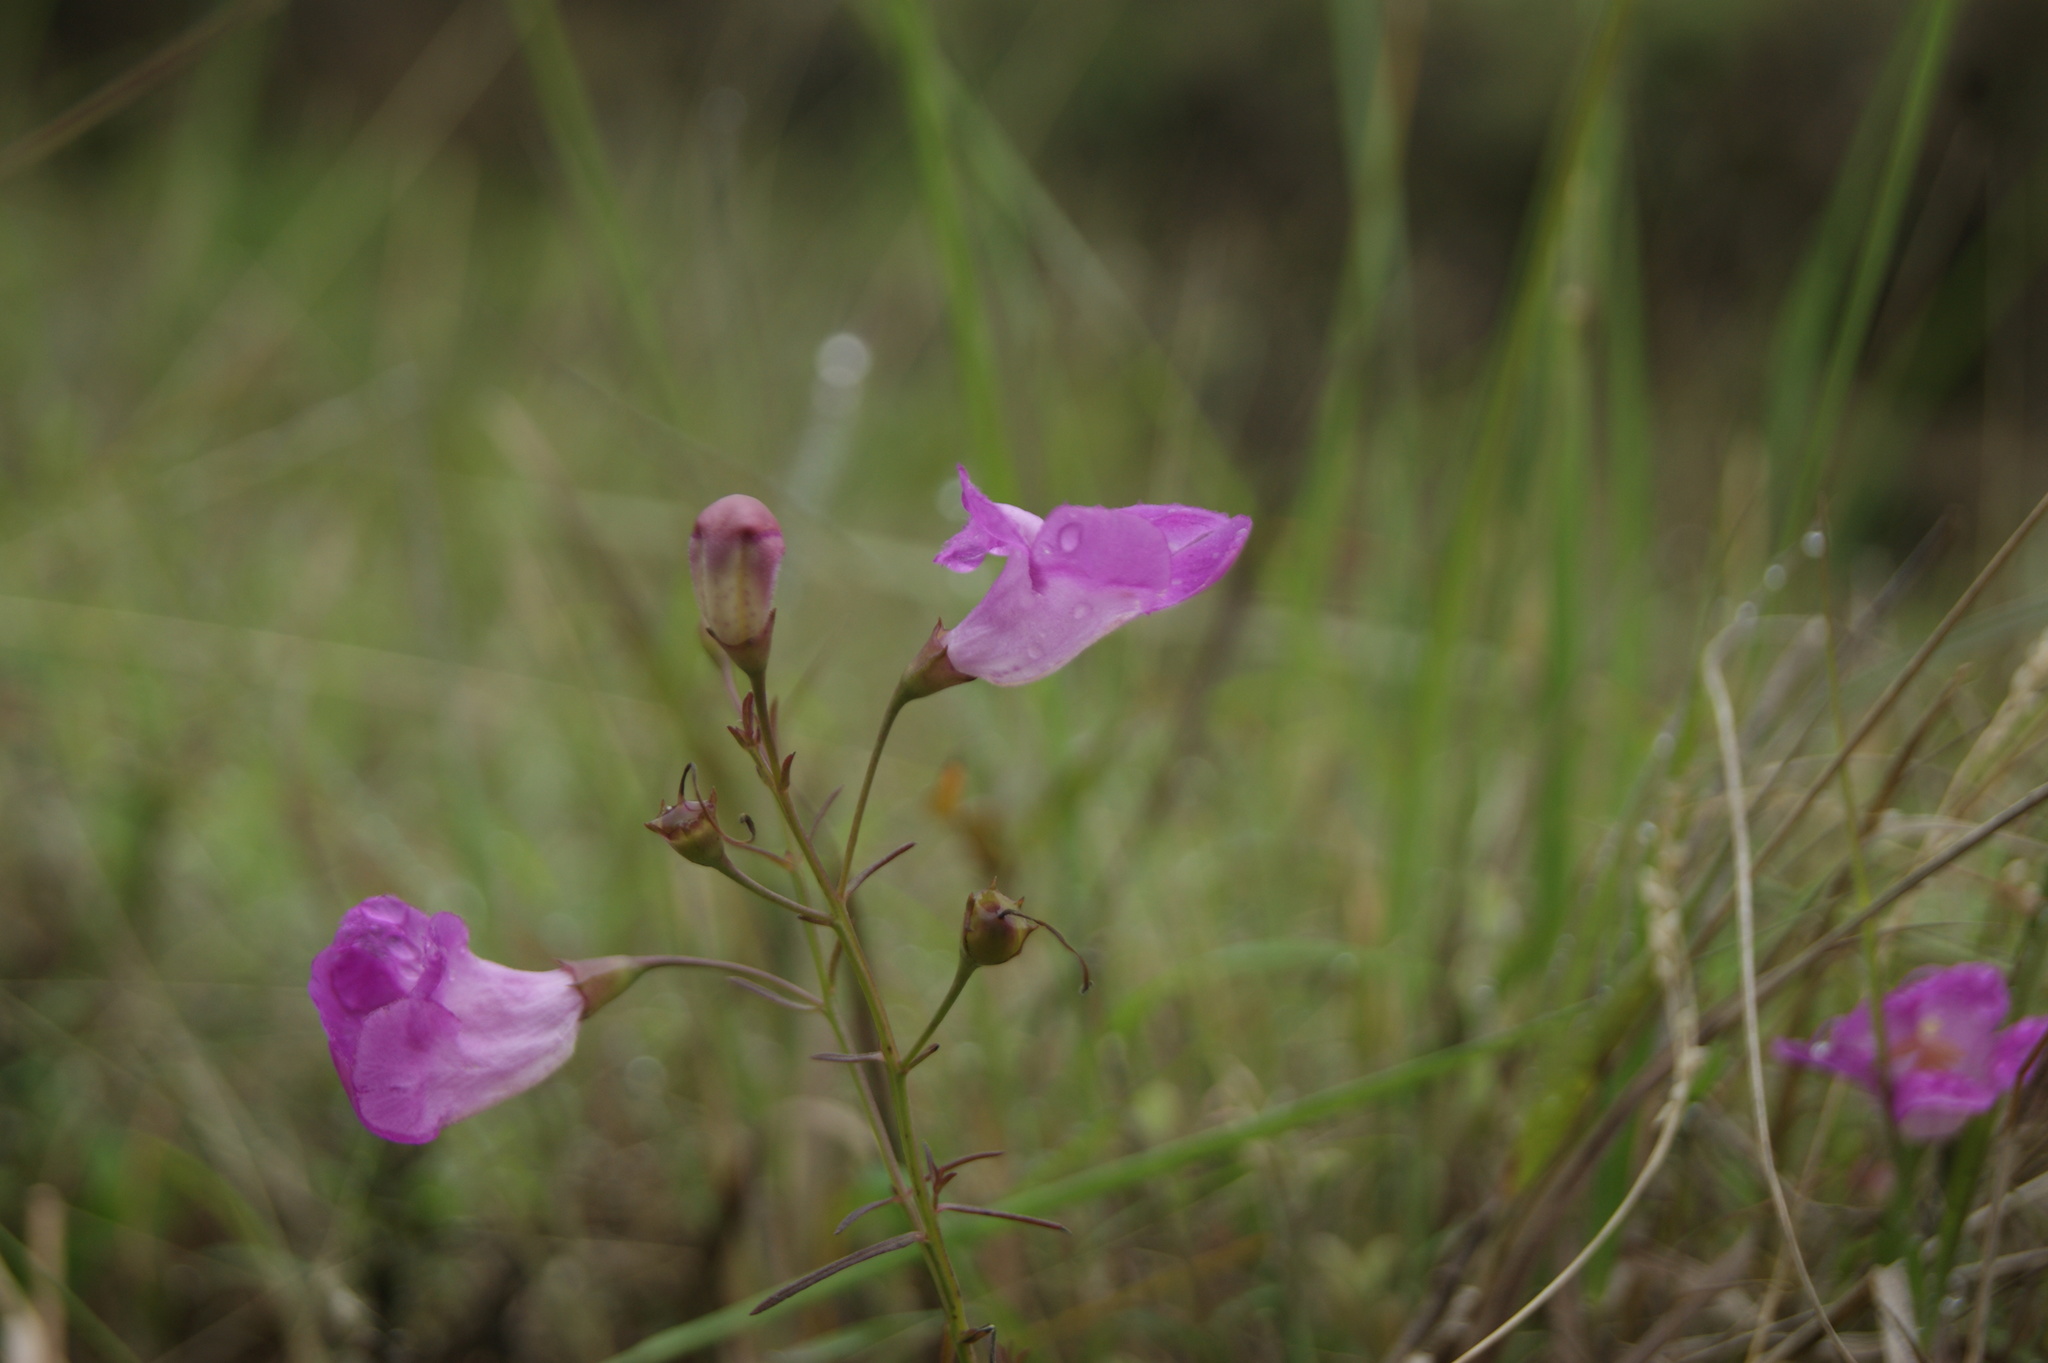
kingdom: Plantae
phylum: Tracheophyta
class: Magnoliopsida
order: Lamiales
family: Orobanchaceae
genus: Agalinis
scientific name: Agalinis peduncularis
